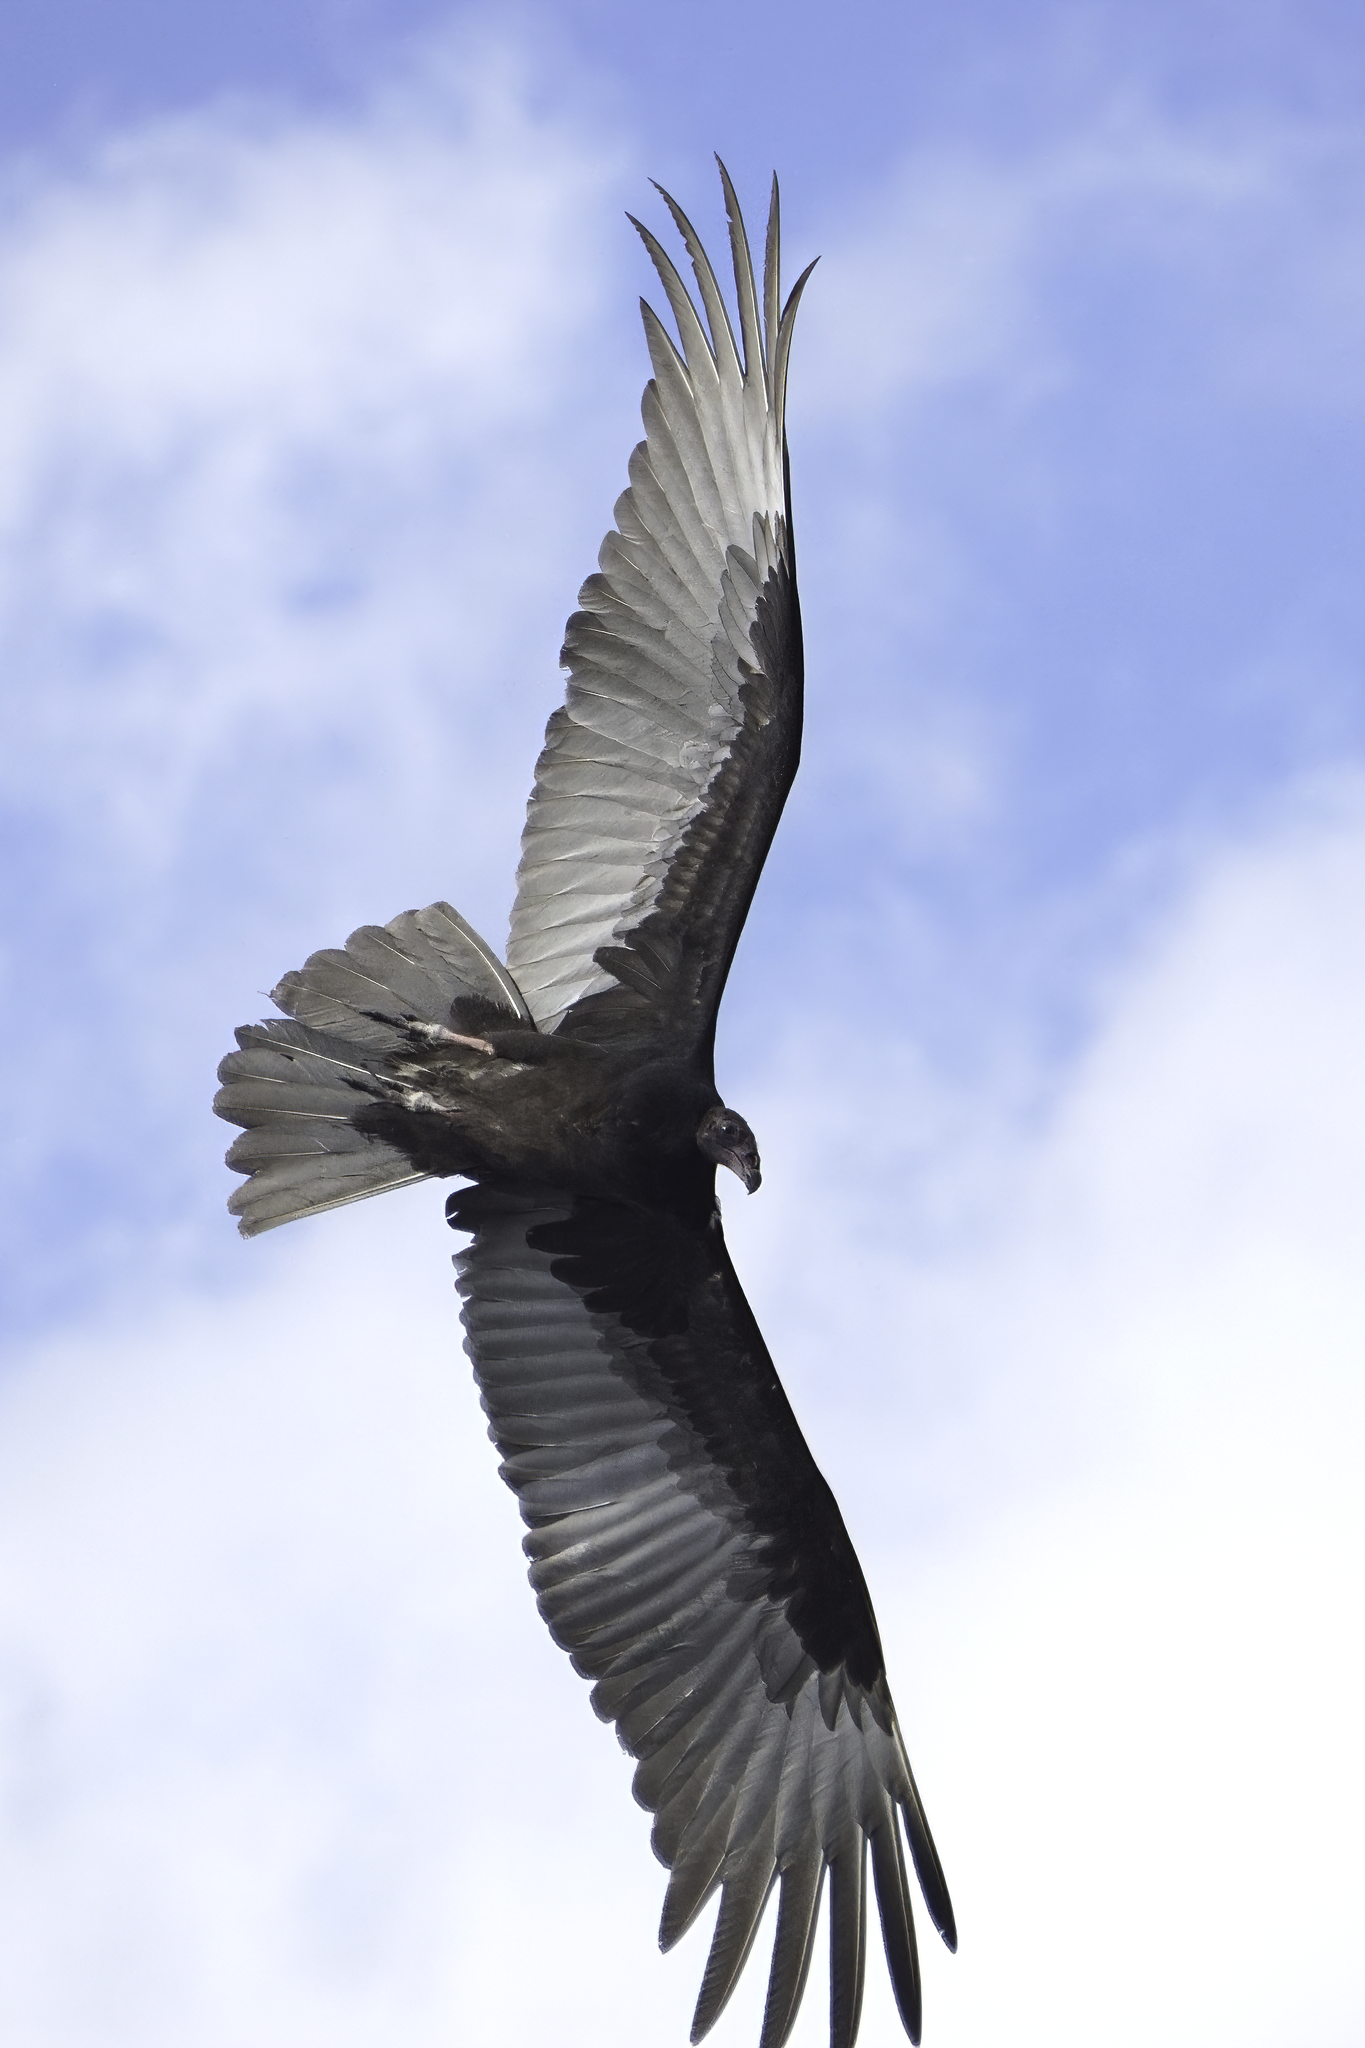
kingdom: Animalia
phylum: Chordata
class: Aves
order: Accipitriformes
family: Cathartidae
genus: Cathartes
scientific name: Cathartes aura
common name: Turkey vulture
